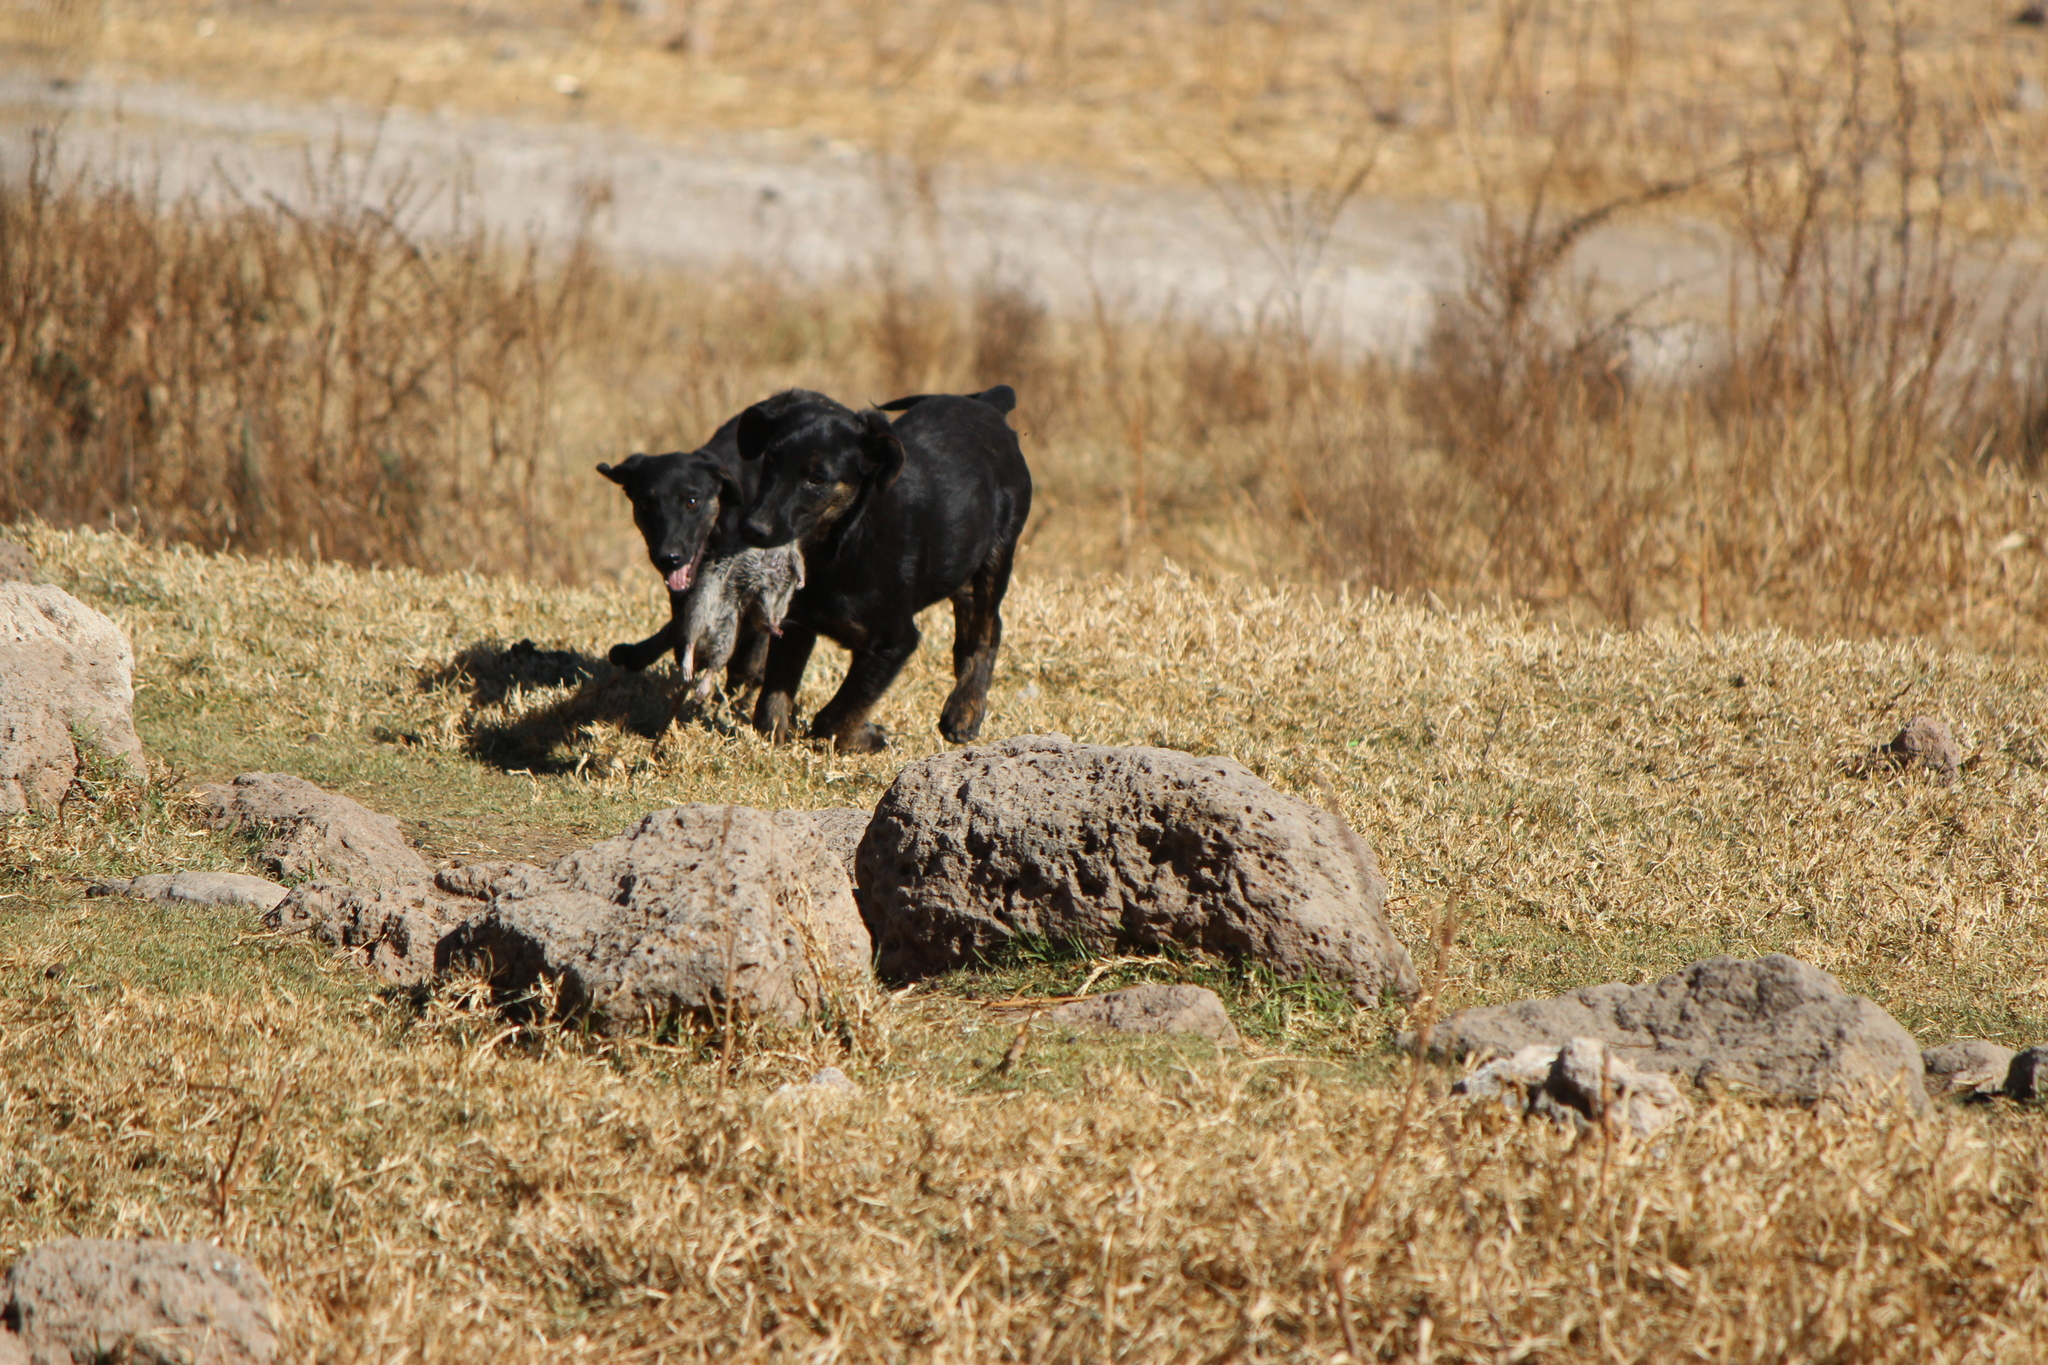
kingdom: Animalia
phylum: Chordata
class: Mammalia
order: Carnivora
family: Canidae
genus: Canis
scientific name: Canis lupus
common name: Gray wolf
